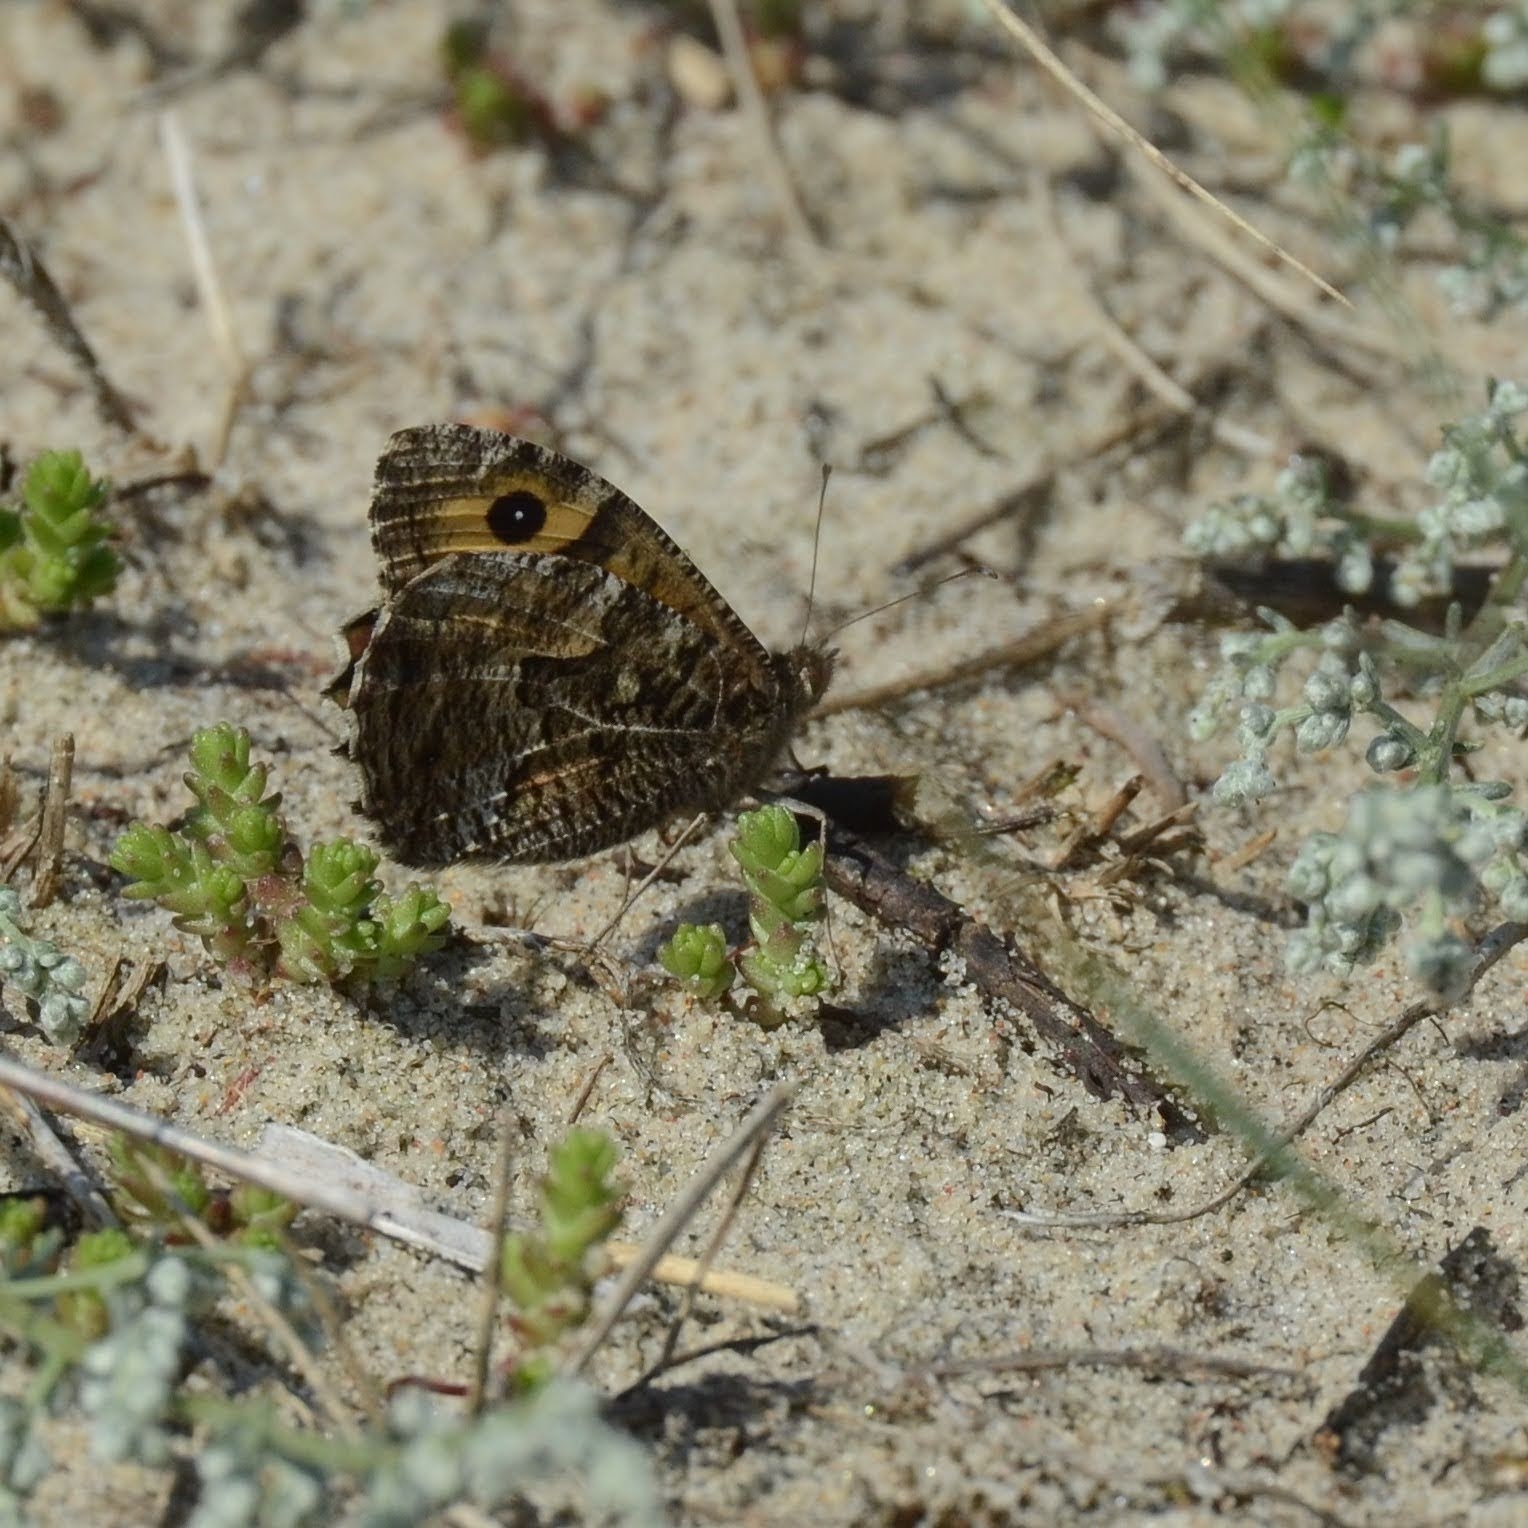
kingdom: Animalia
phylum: Arthropoda
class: Insecta
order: Lepidoptera
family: Nymphalidae
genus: Hipparchia
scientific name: Hipparchia semele
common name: Grayling
